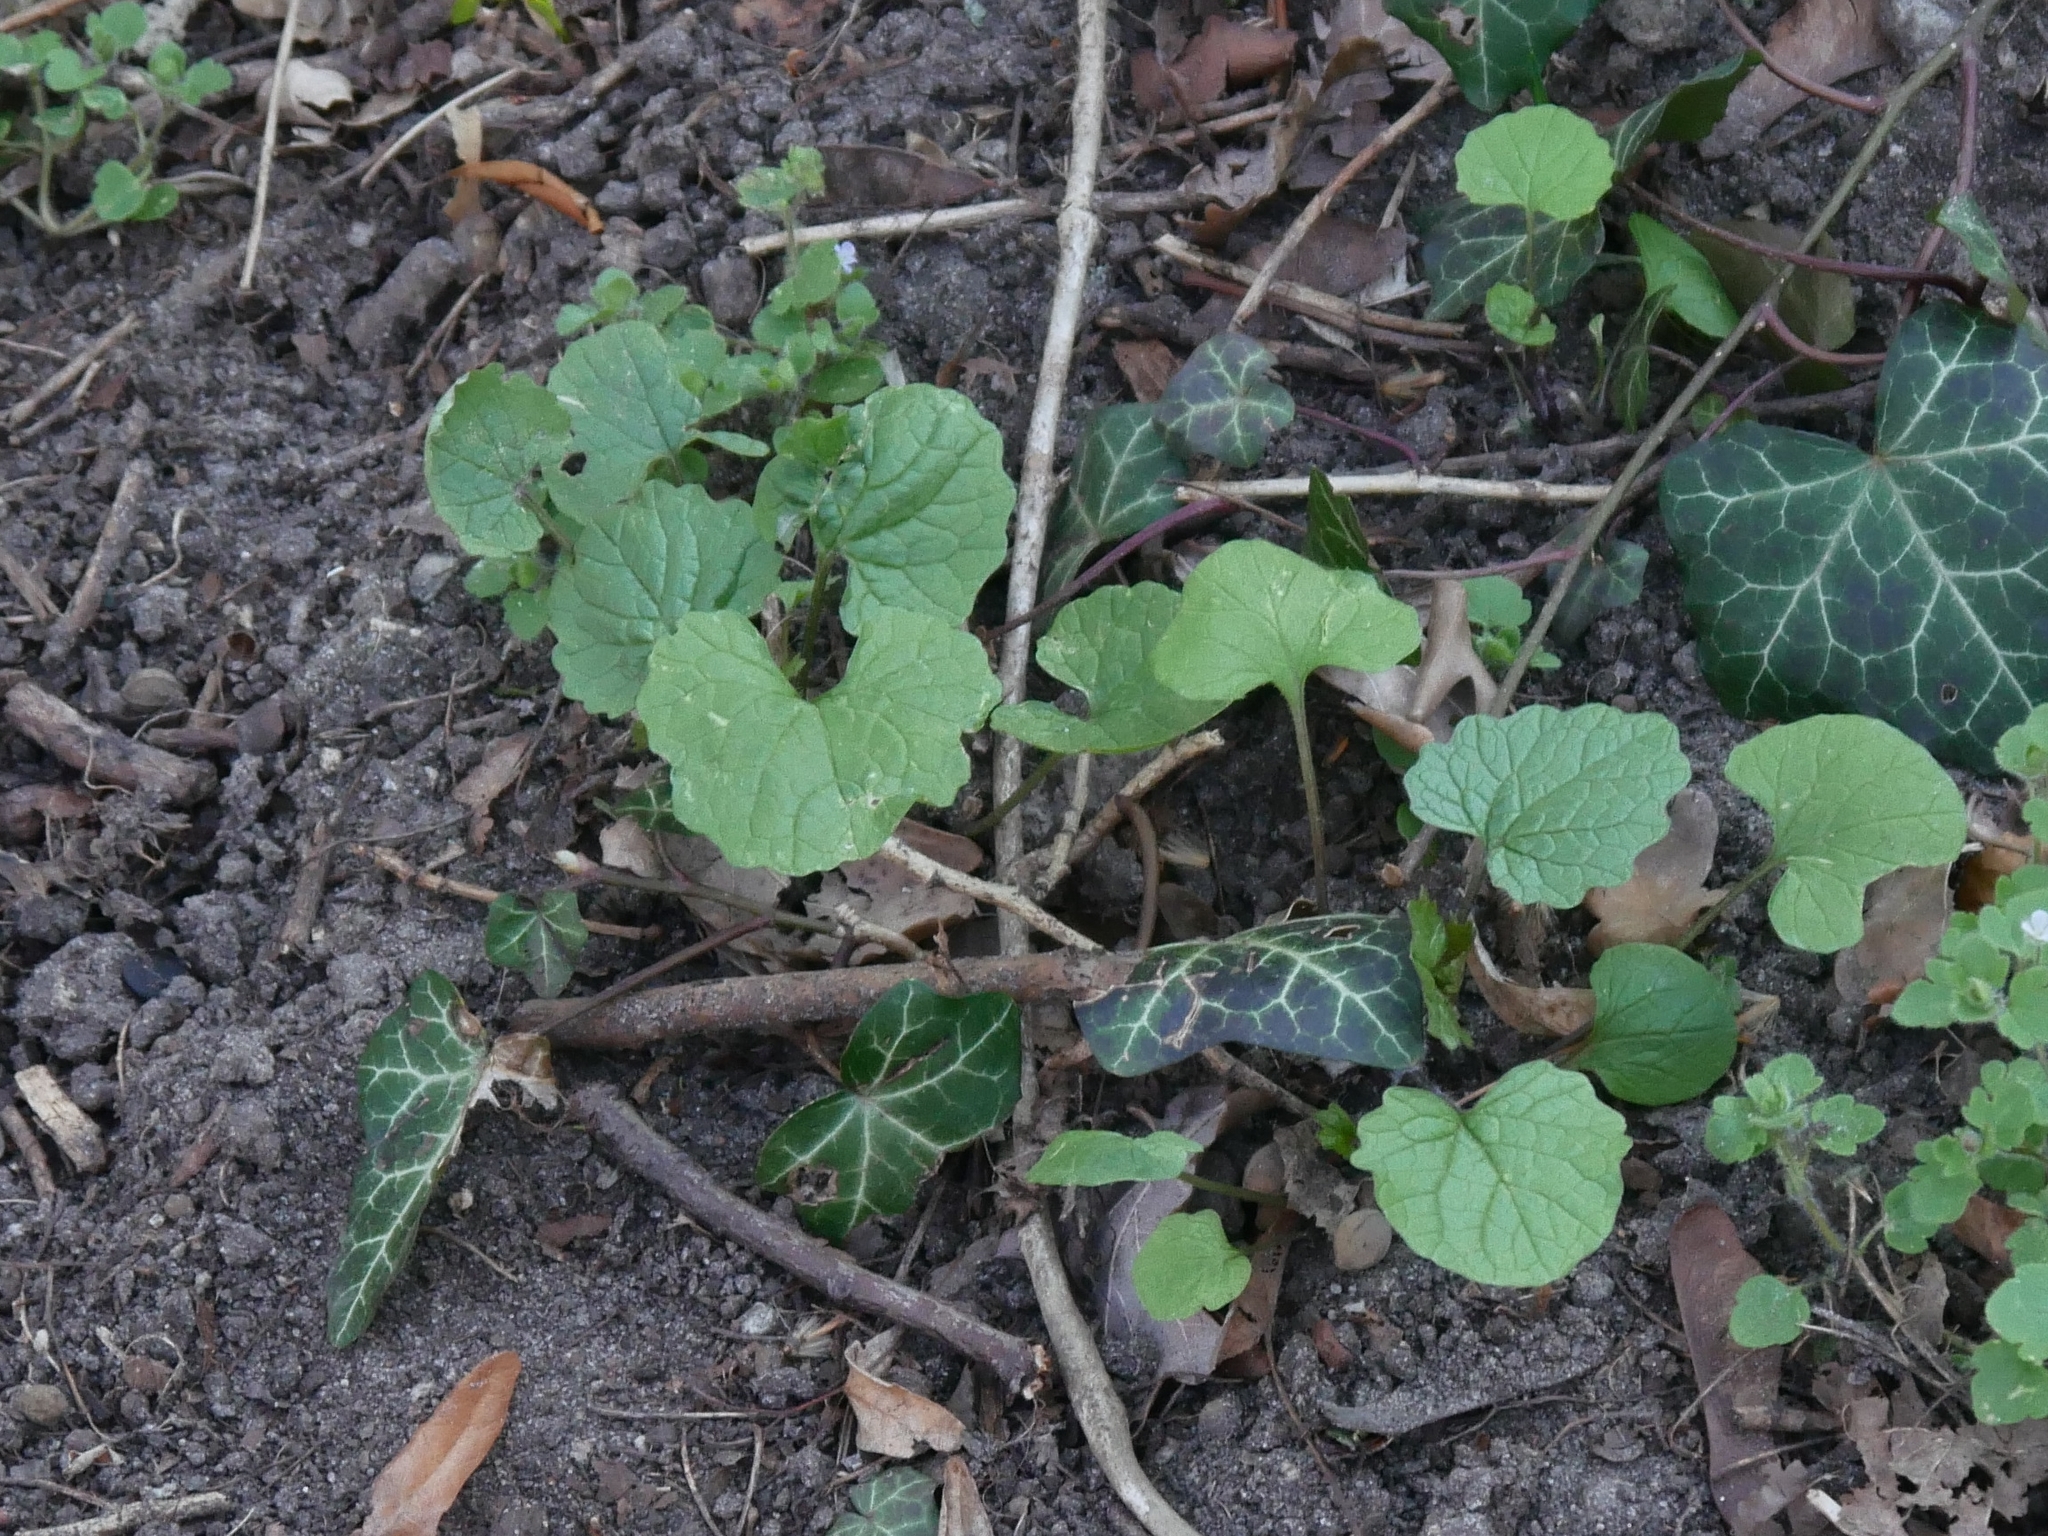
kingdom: Plantae
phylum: Tracheophyta
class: Magnoliopsida
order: Brassicales
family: Brassicaceae
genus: Alliaria
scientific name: Alliaria petiolata
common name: Garlic mustard
